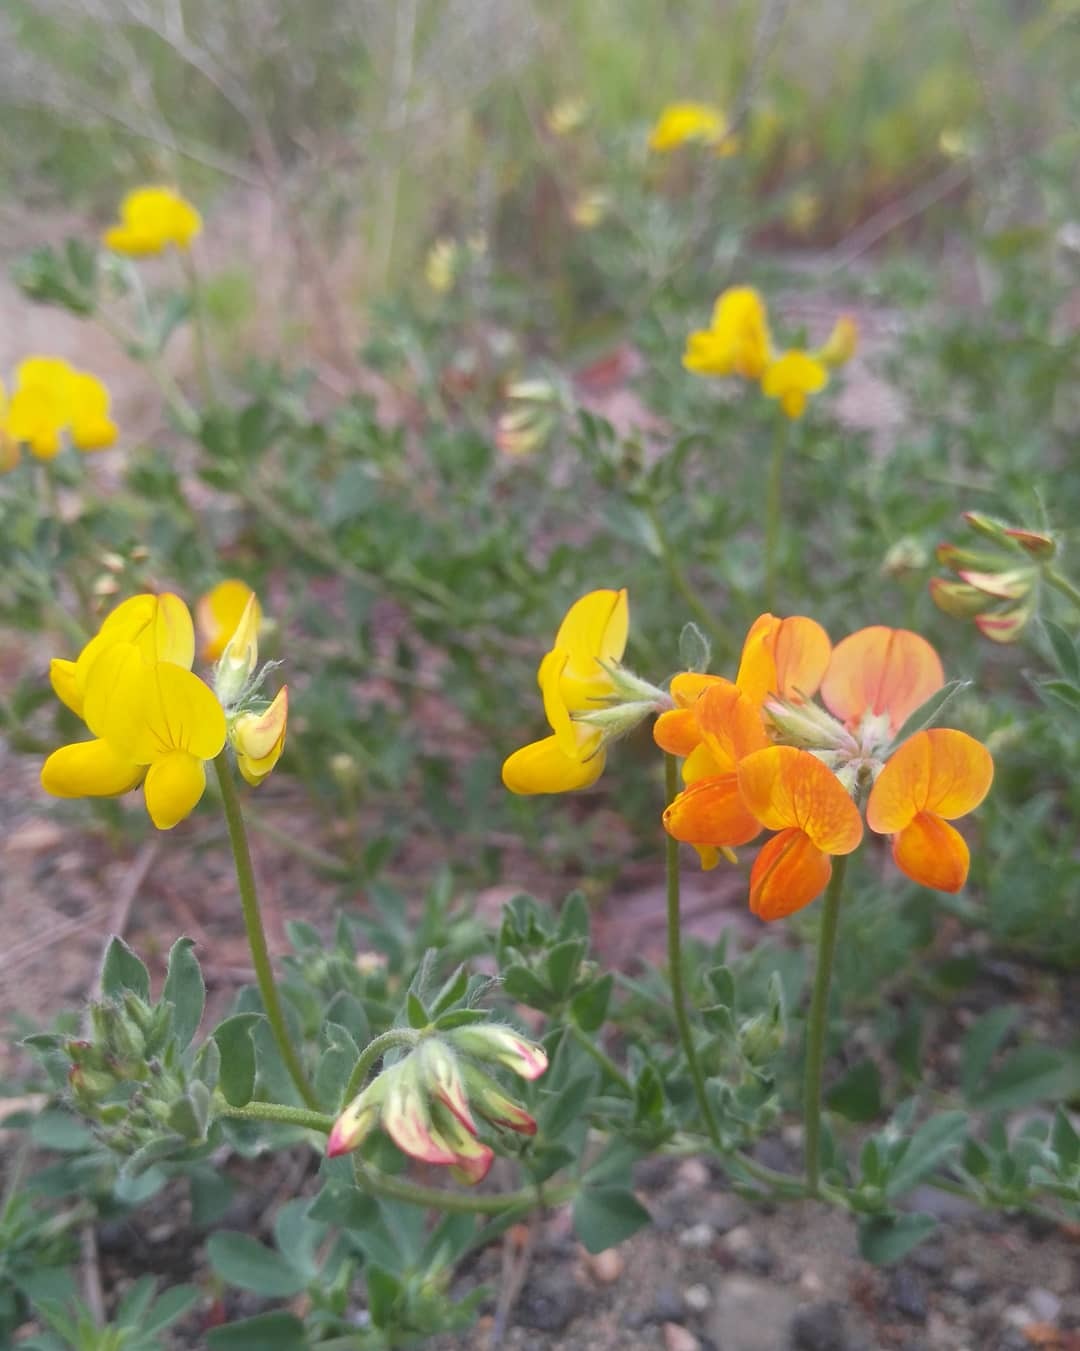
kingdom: Plantae
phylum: Tracheophyta
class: Magnoliopsida
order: Fabales
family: Fabaceae
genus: Lotus
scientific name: Lotus corniculatus
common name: Common bird's-foot-trefoil
